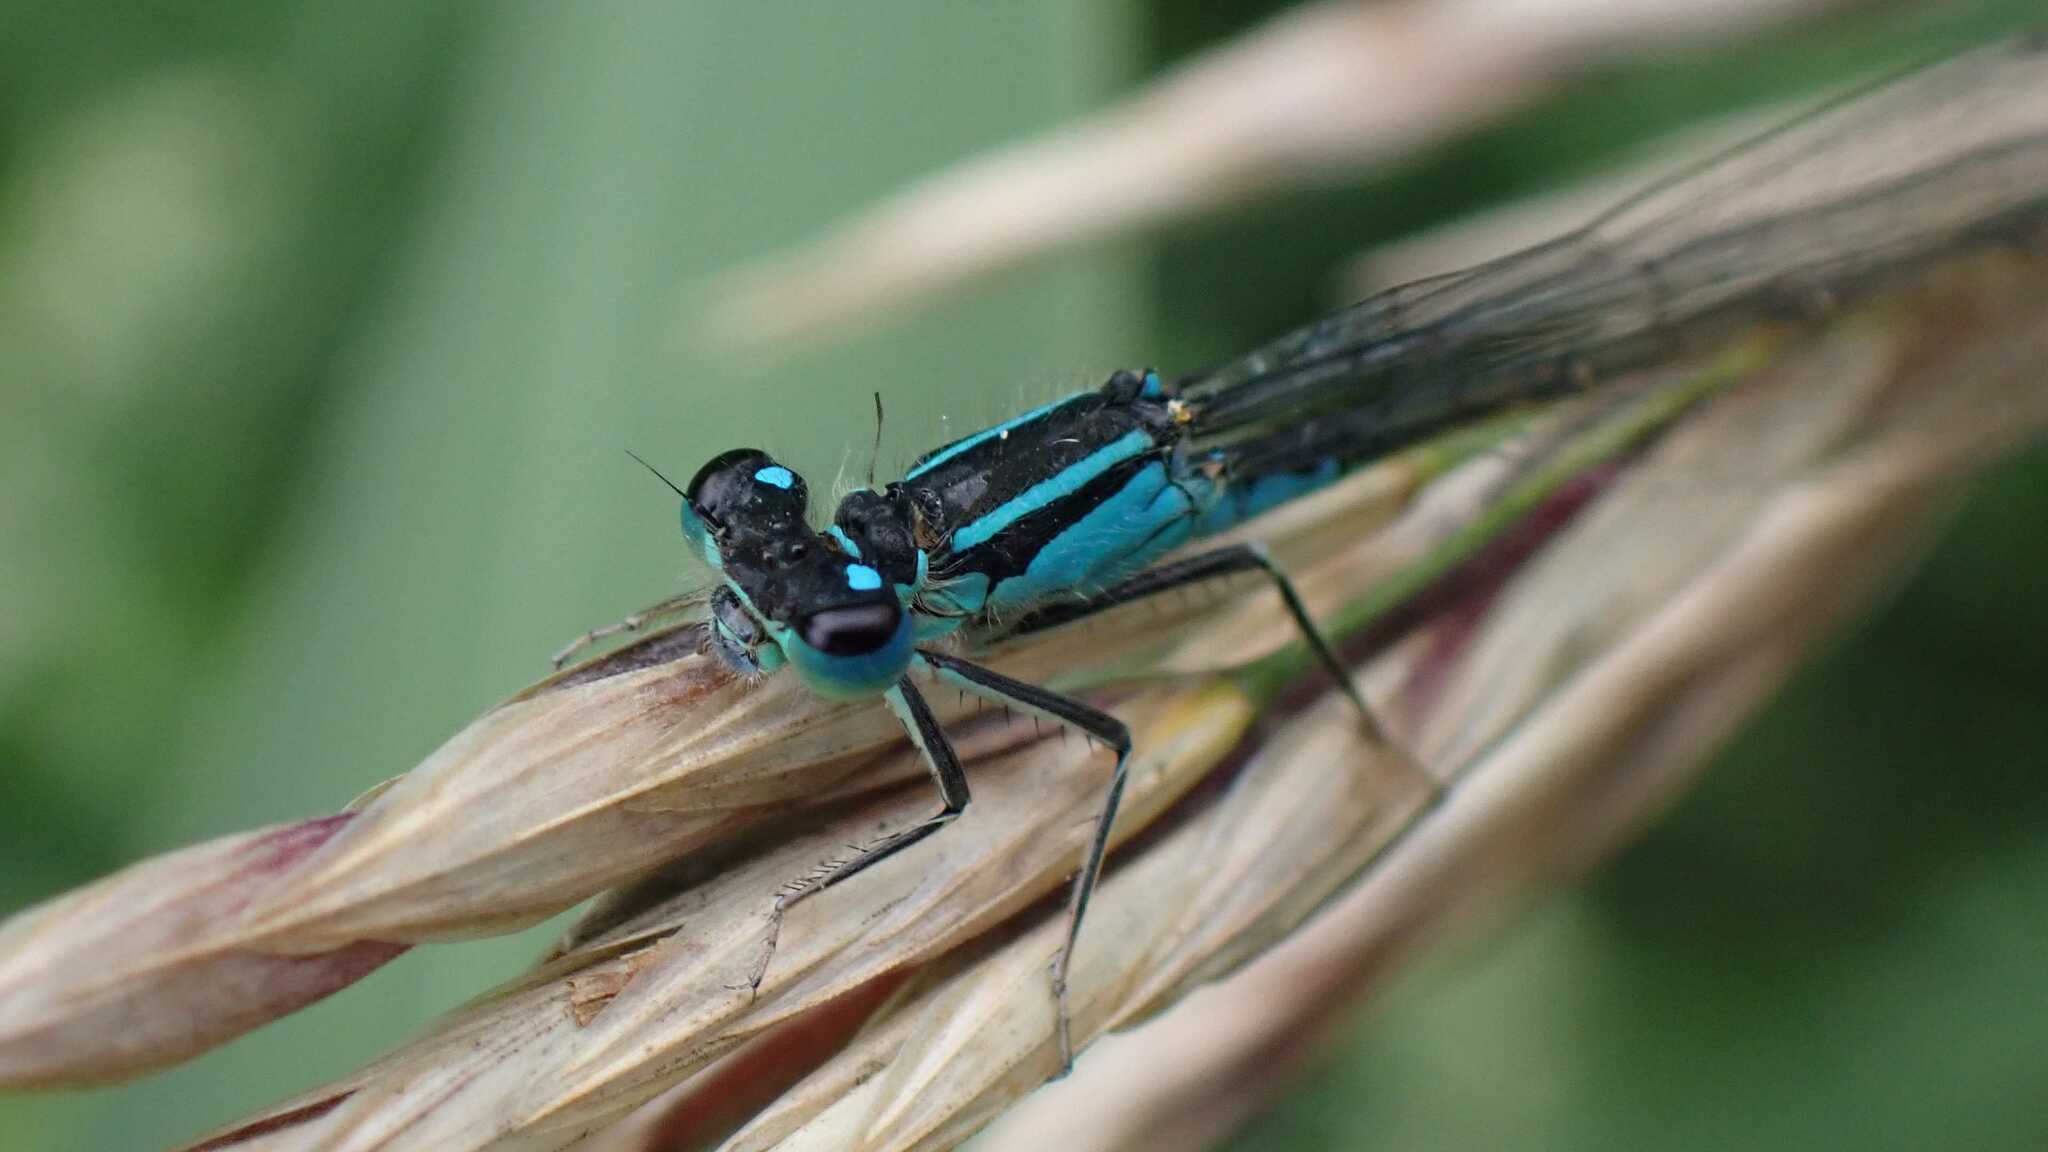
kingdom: Animalia
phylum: Arthropoda
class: Insecta
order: Odonata
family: Coenagrionidae
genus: Ischnura
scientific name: Ischnura elegans
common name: Blue-tailed damselfly
